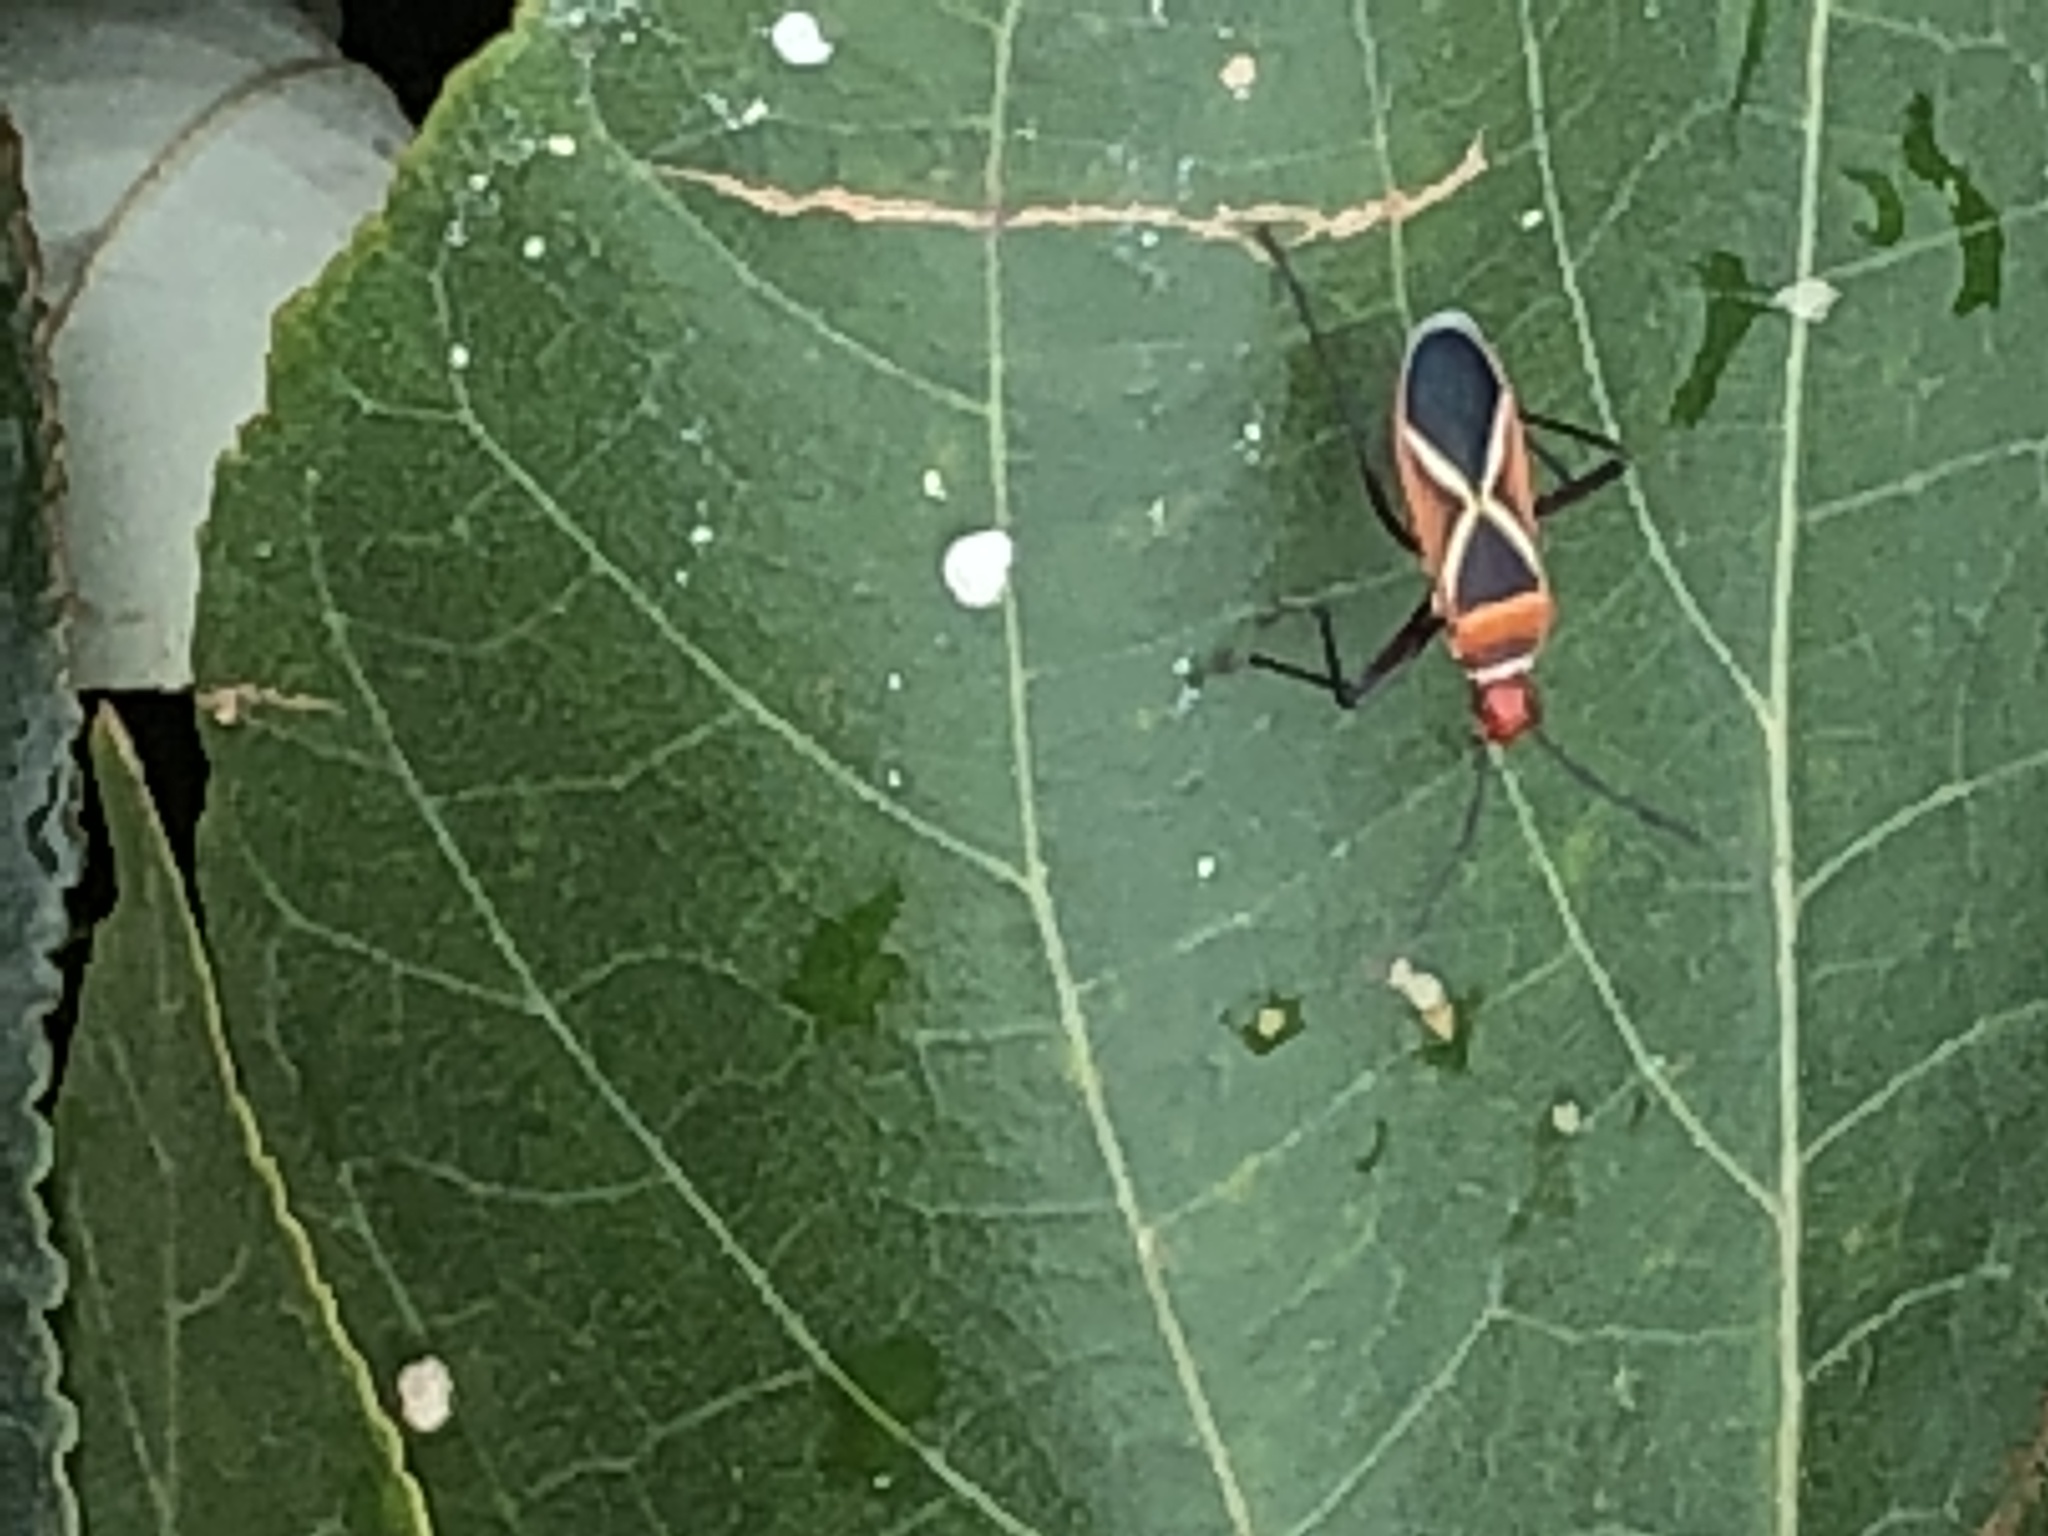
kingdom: Animalia
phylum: Arthropoda
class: Insecta
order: Hemiptera
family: Pyrrhocoridae
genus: Dysdercus
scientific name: Dysdercus decussatus
